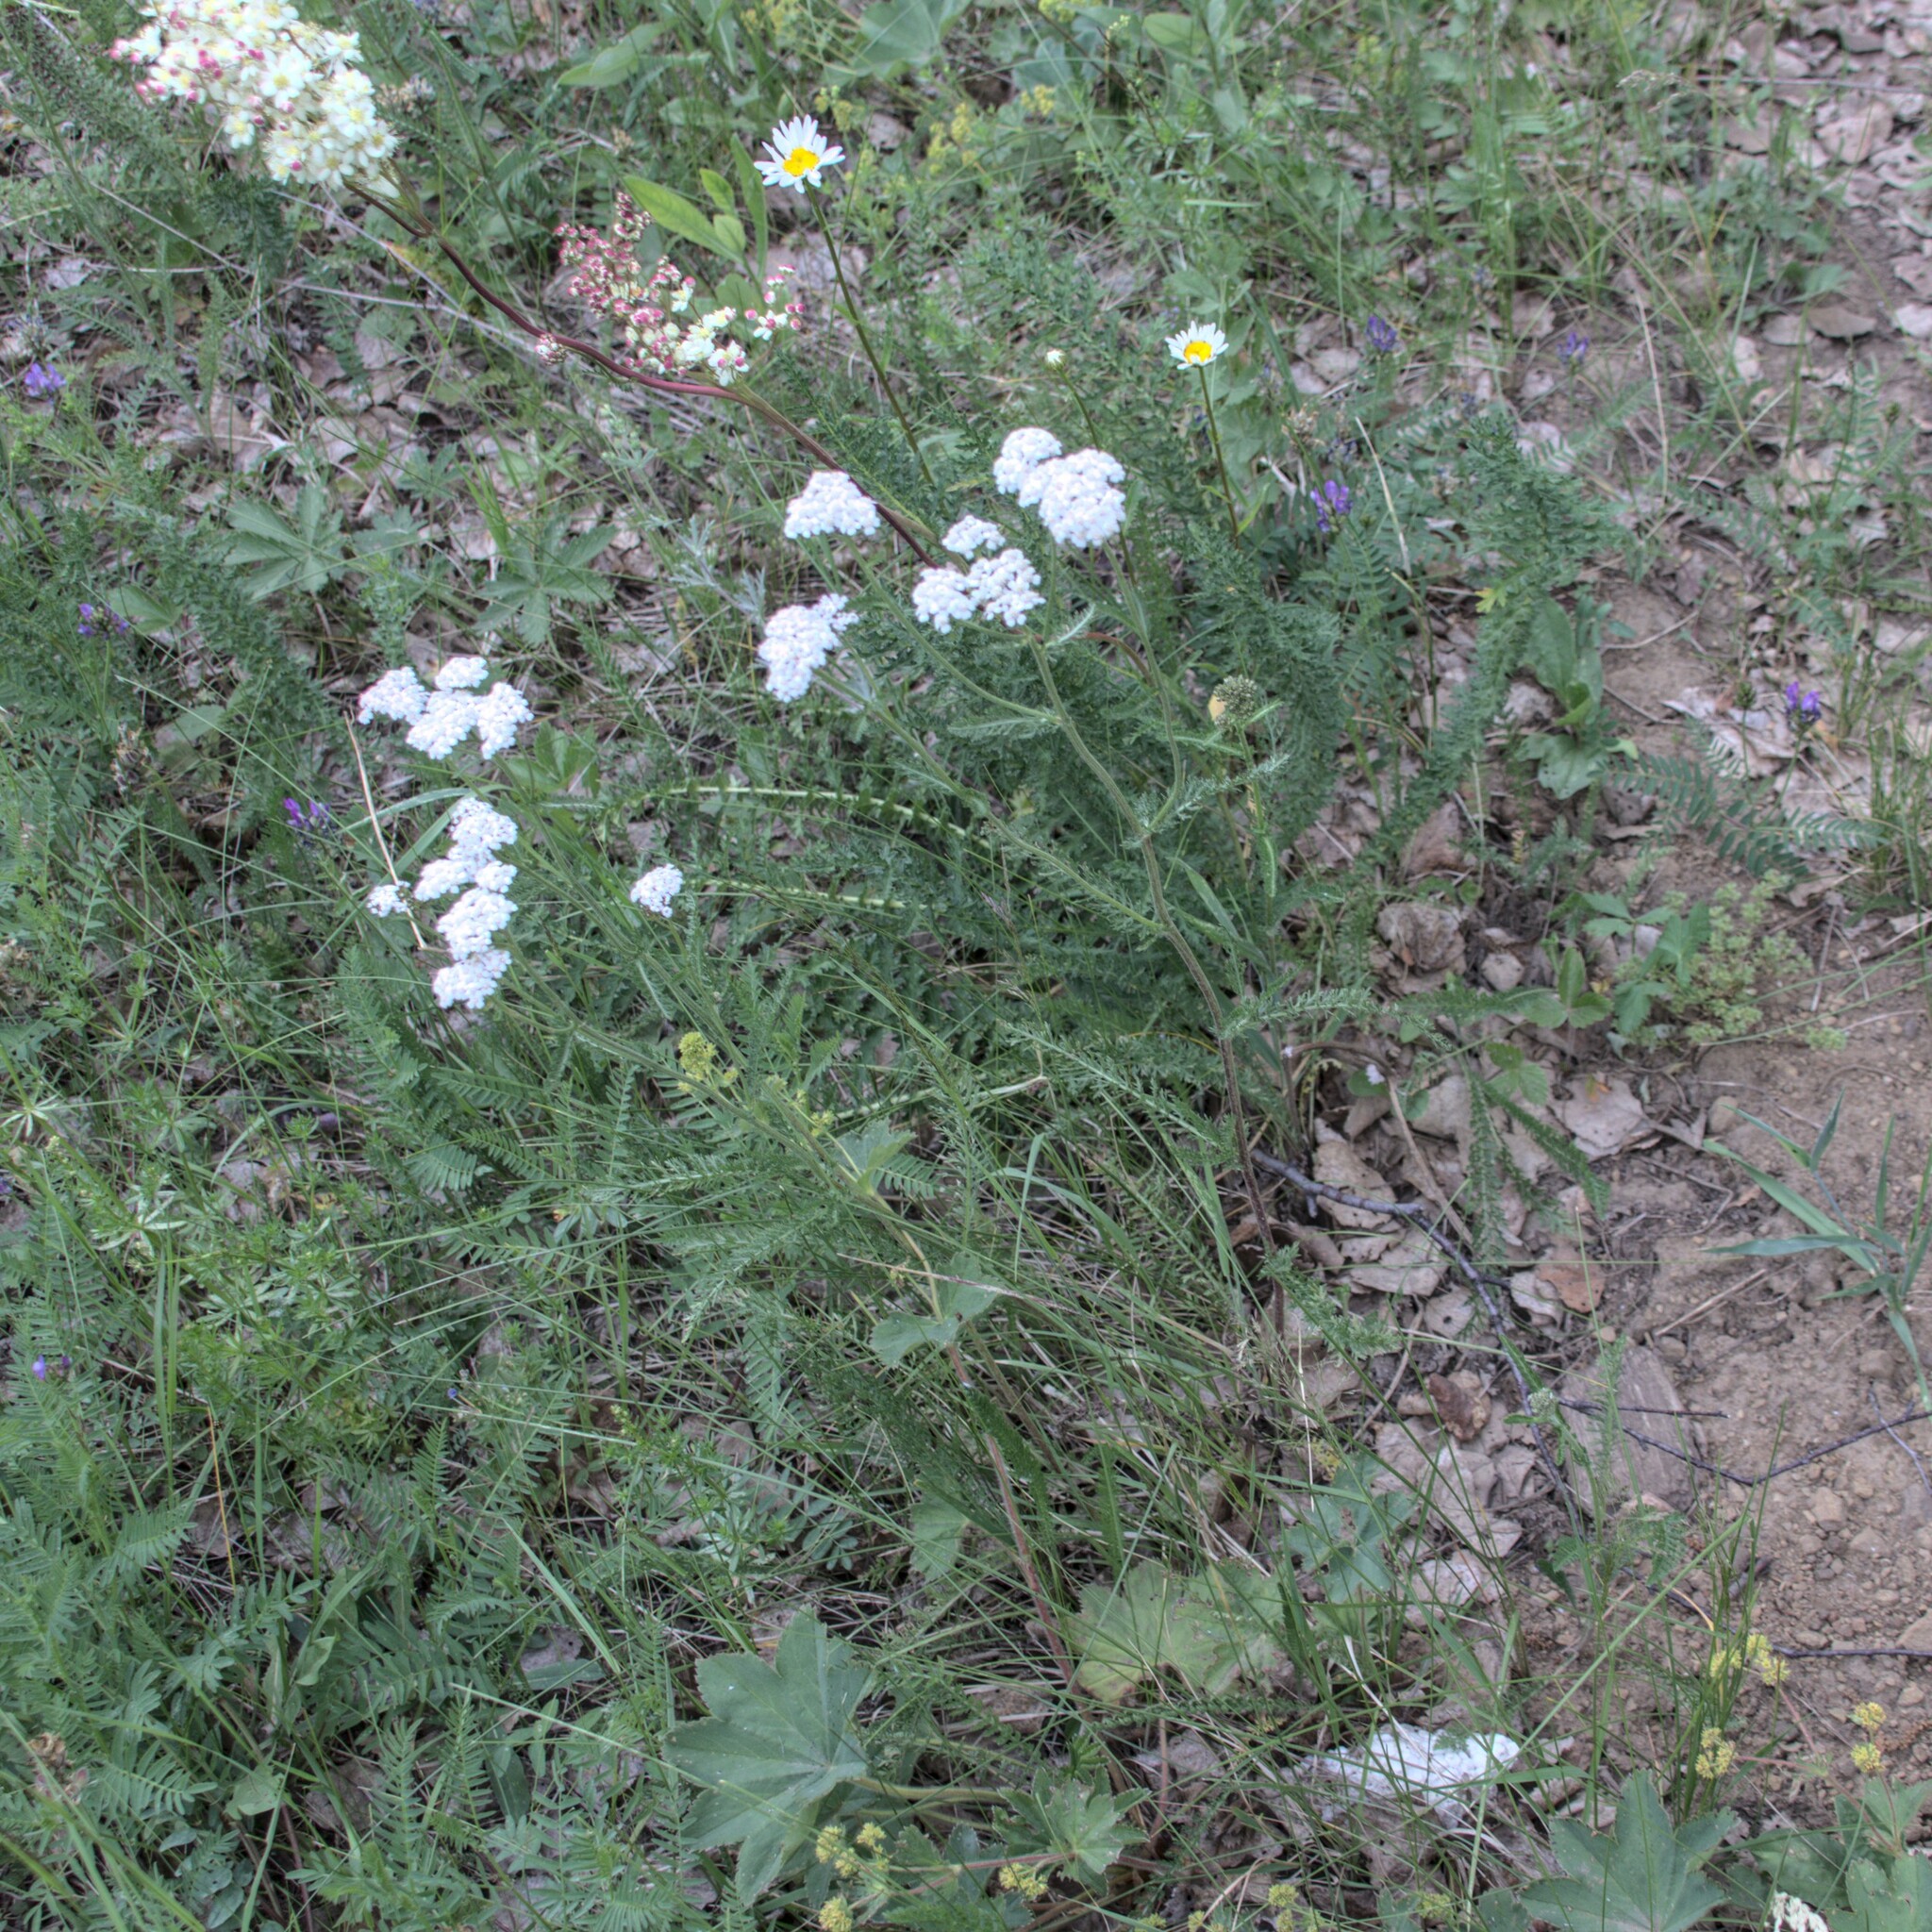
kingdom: Plantae
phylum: Tracheophyta
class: Magnoliopsida
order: Asterales
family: Asteraceae
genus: Achillea
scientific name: Achillea millefolium
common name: Yarrow
